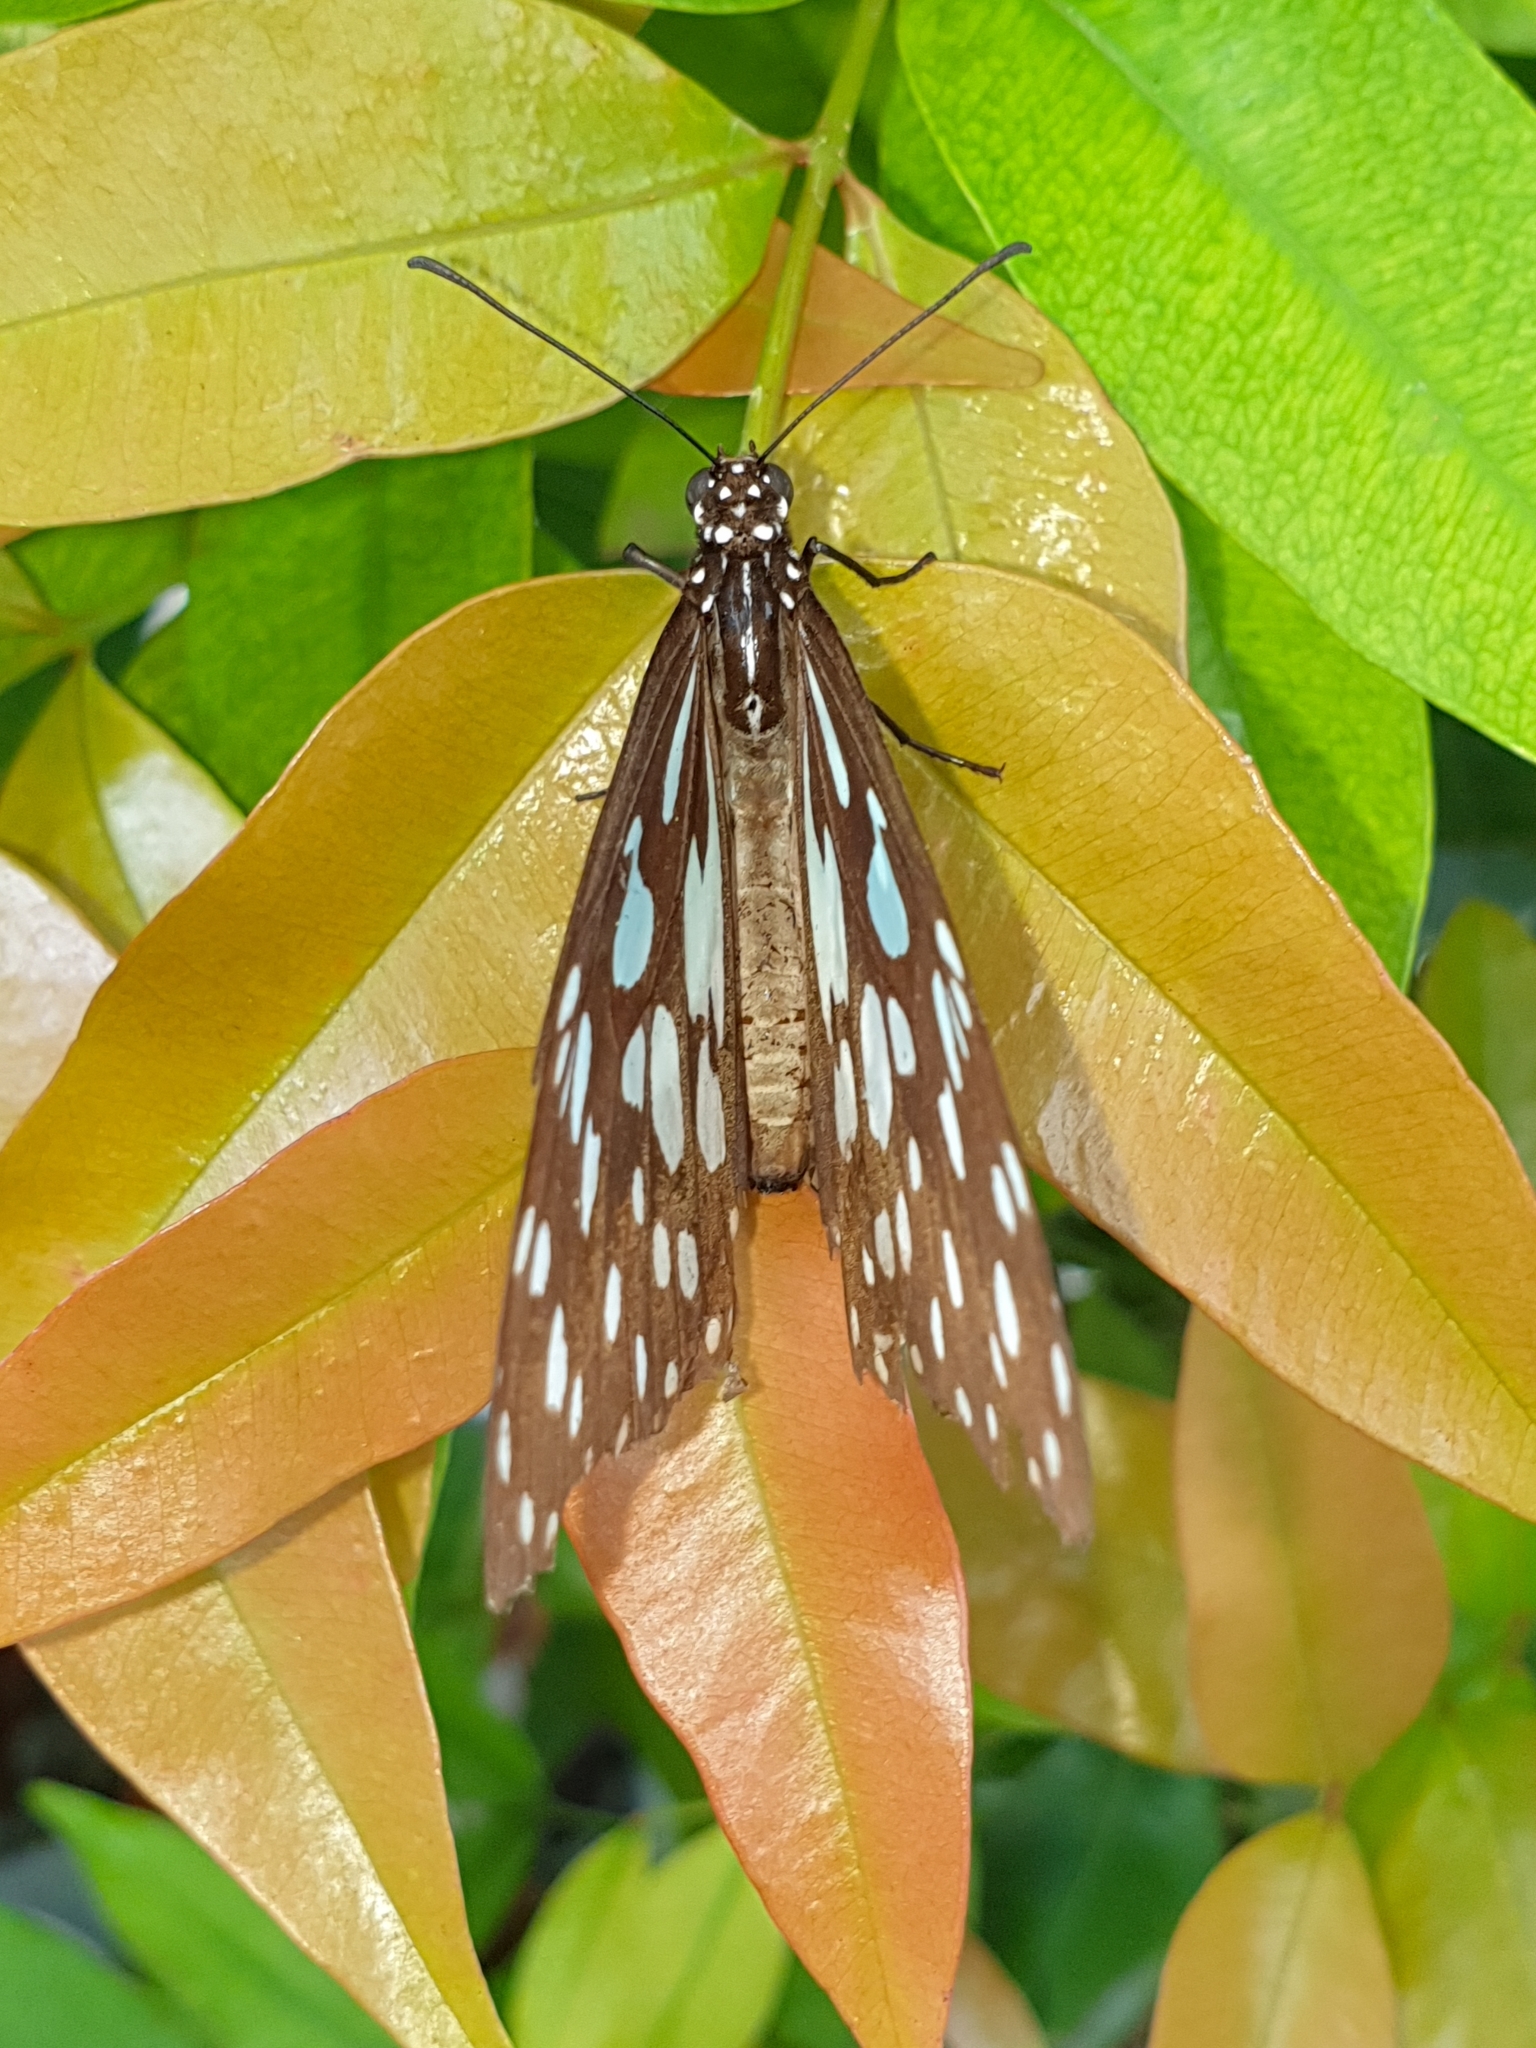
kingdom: Animalia
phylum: Arthropoda
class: Insecta
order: Lepidoptera
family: Nymphalidae
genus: Tirumala
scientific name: Tirumala limniace
